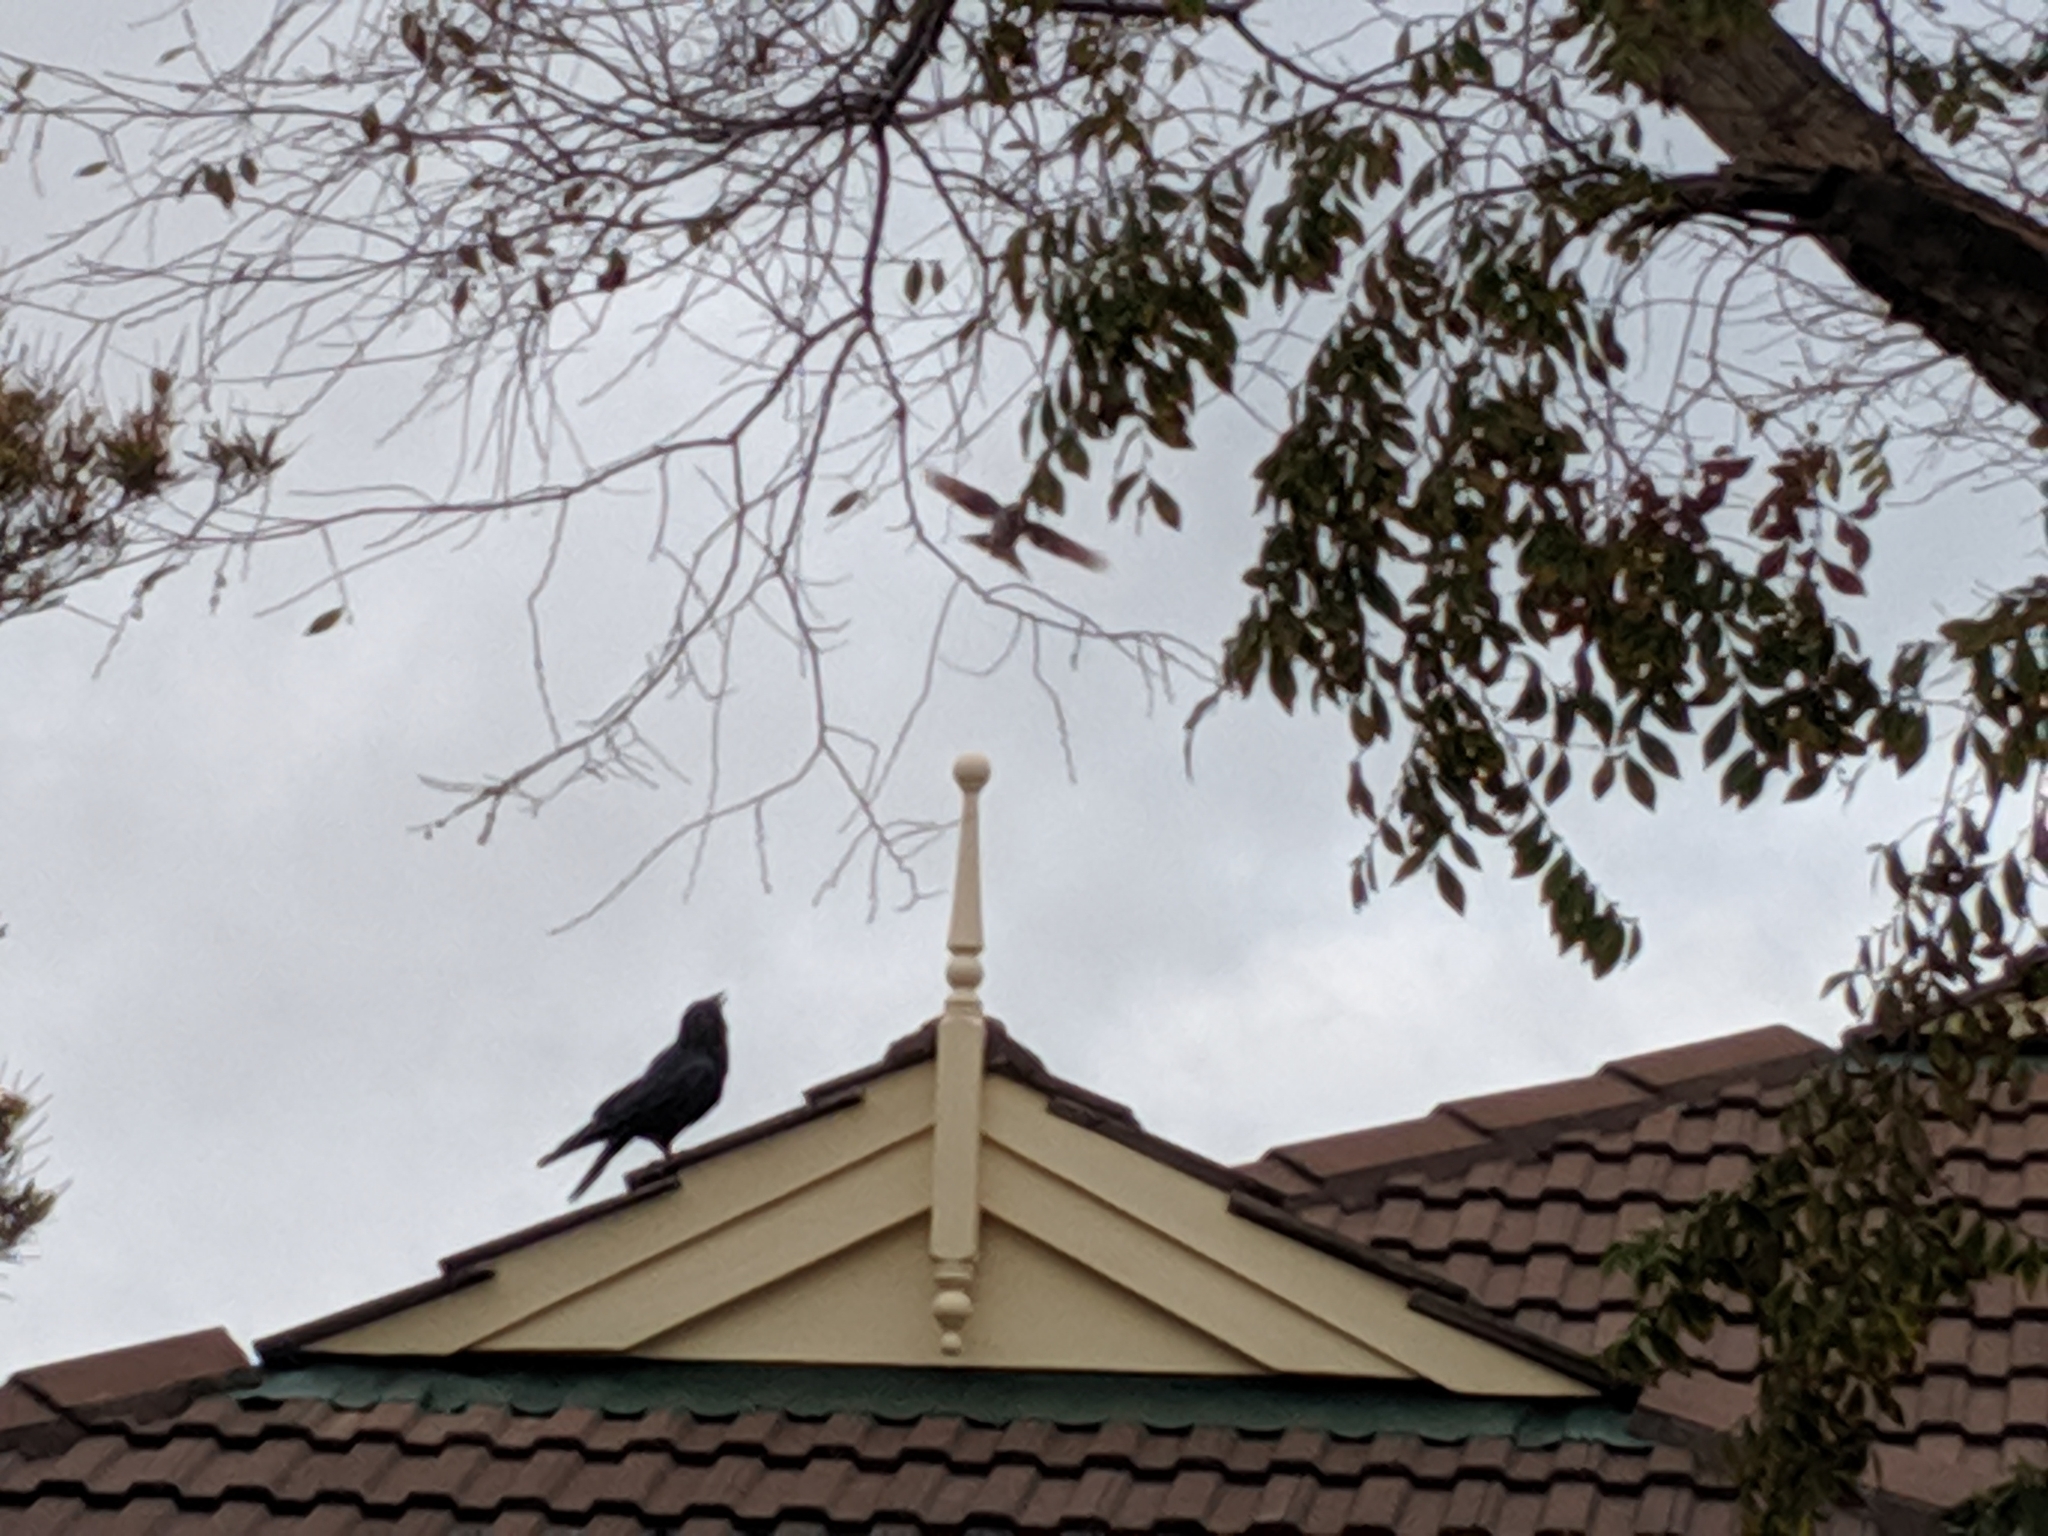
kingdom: Animalia
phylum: Chordata
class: Aves
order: Passeriformes
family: Corvidae
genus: Corvus
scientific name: Corvus
